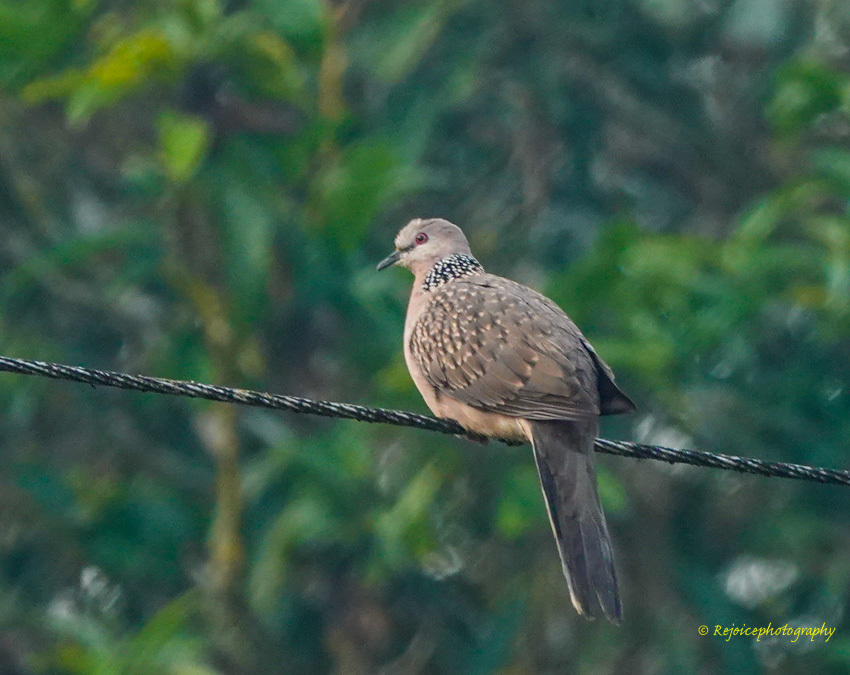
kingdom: Animalia
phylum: Chordata
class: Aves
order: Columbiformes
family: Columbidae
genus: Spilopelia
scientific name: Spilopelia chinensis
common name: Spotted dove
